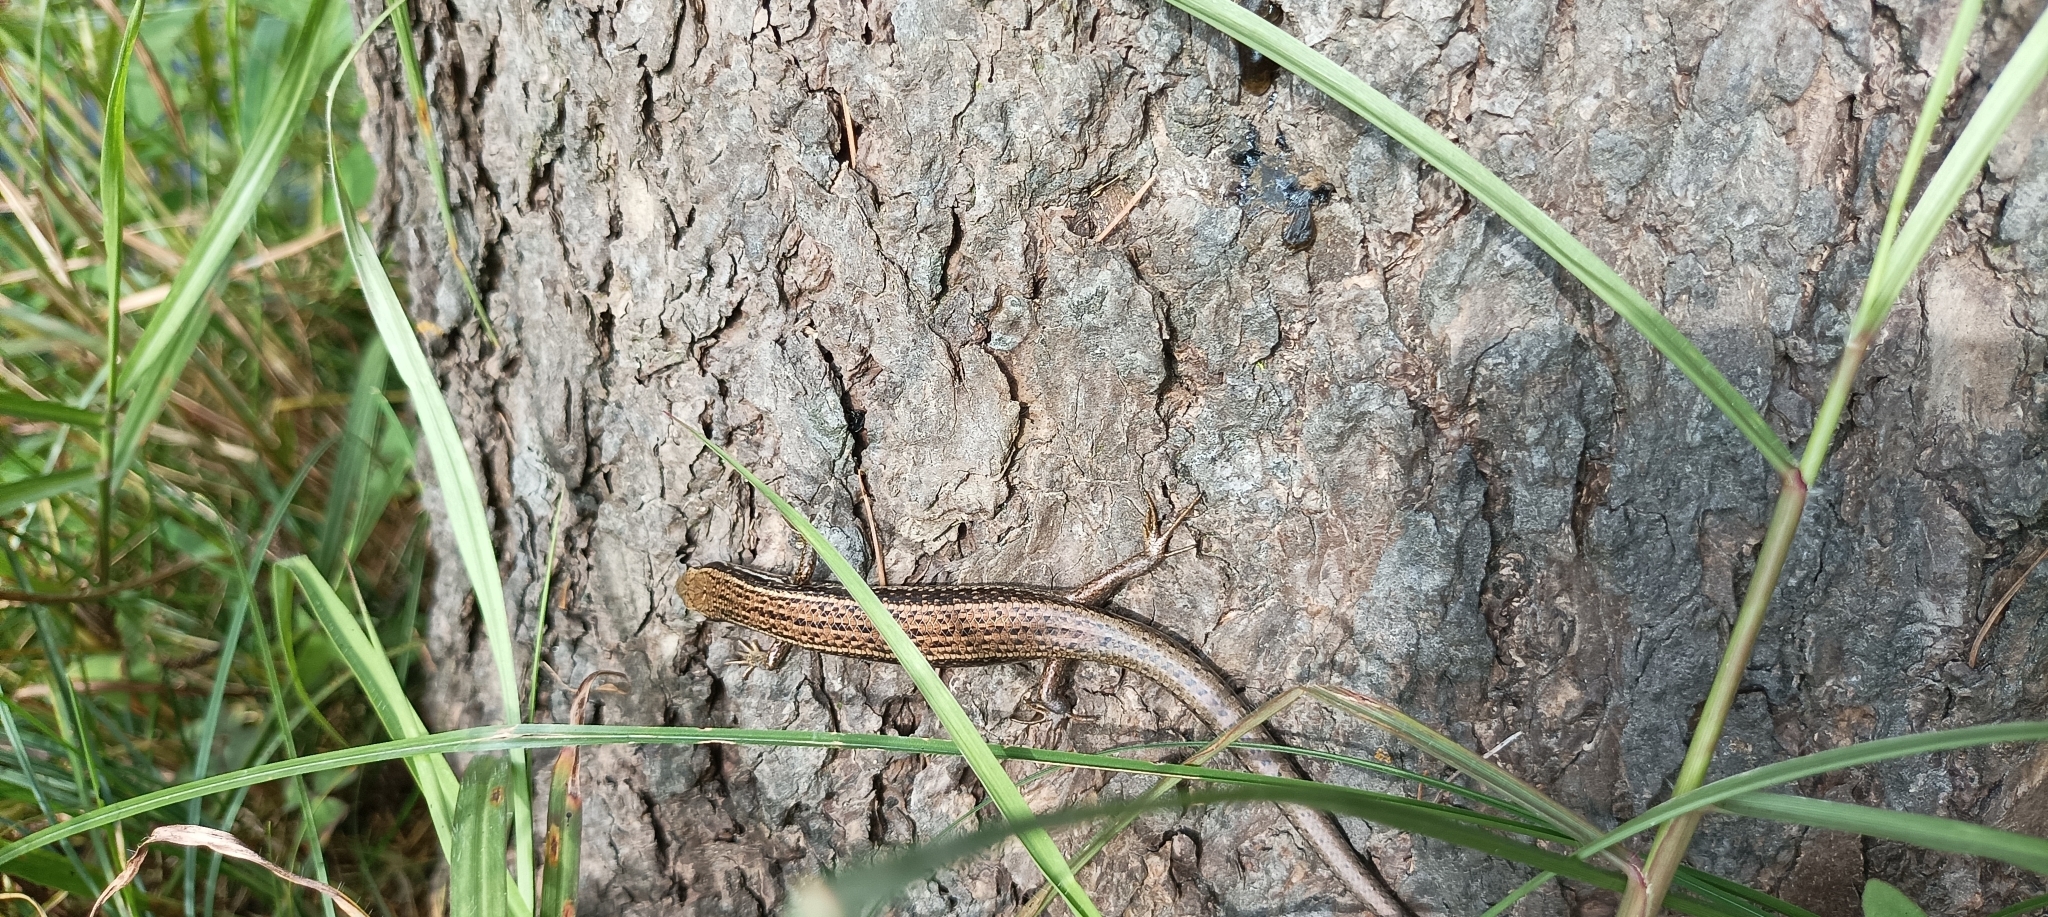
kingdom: Animalia
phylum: Chordata
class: Squamata
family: Scincidae
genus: Asymblepharus
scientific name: Asymblepharus himalayanus
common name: Himalaya ground skink
